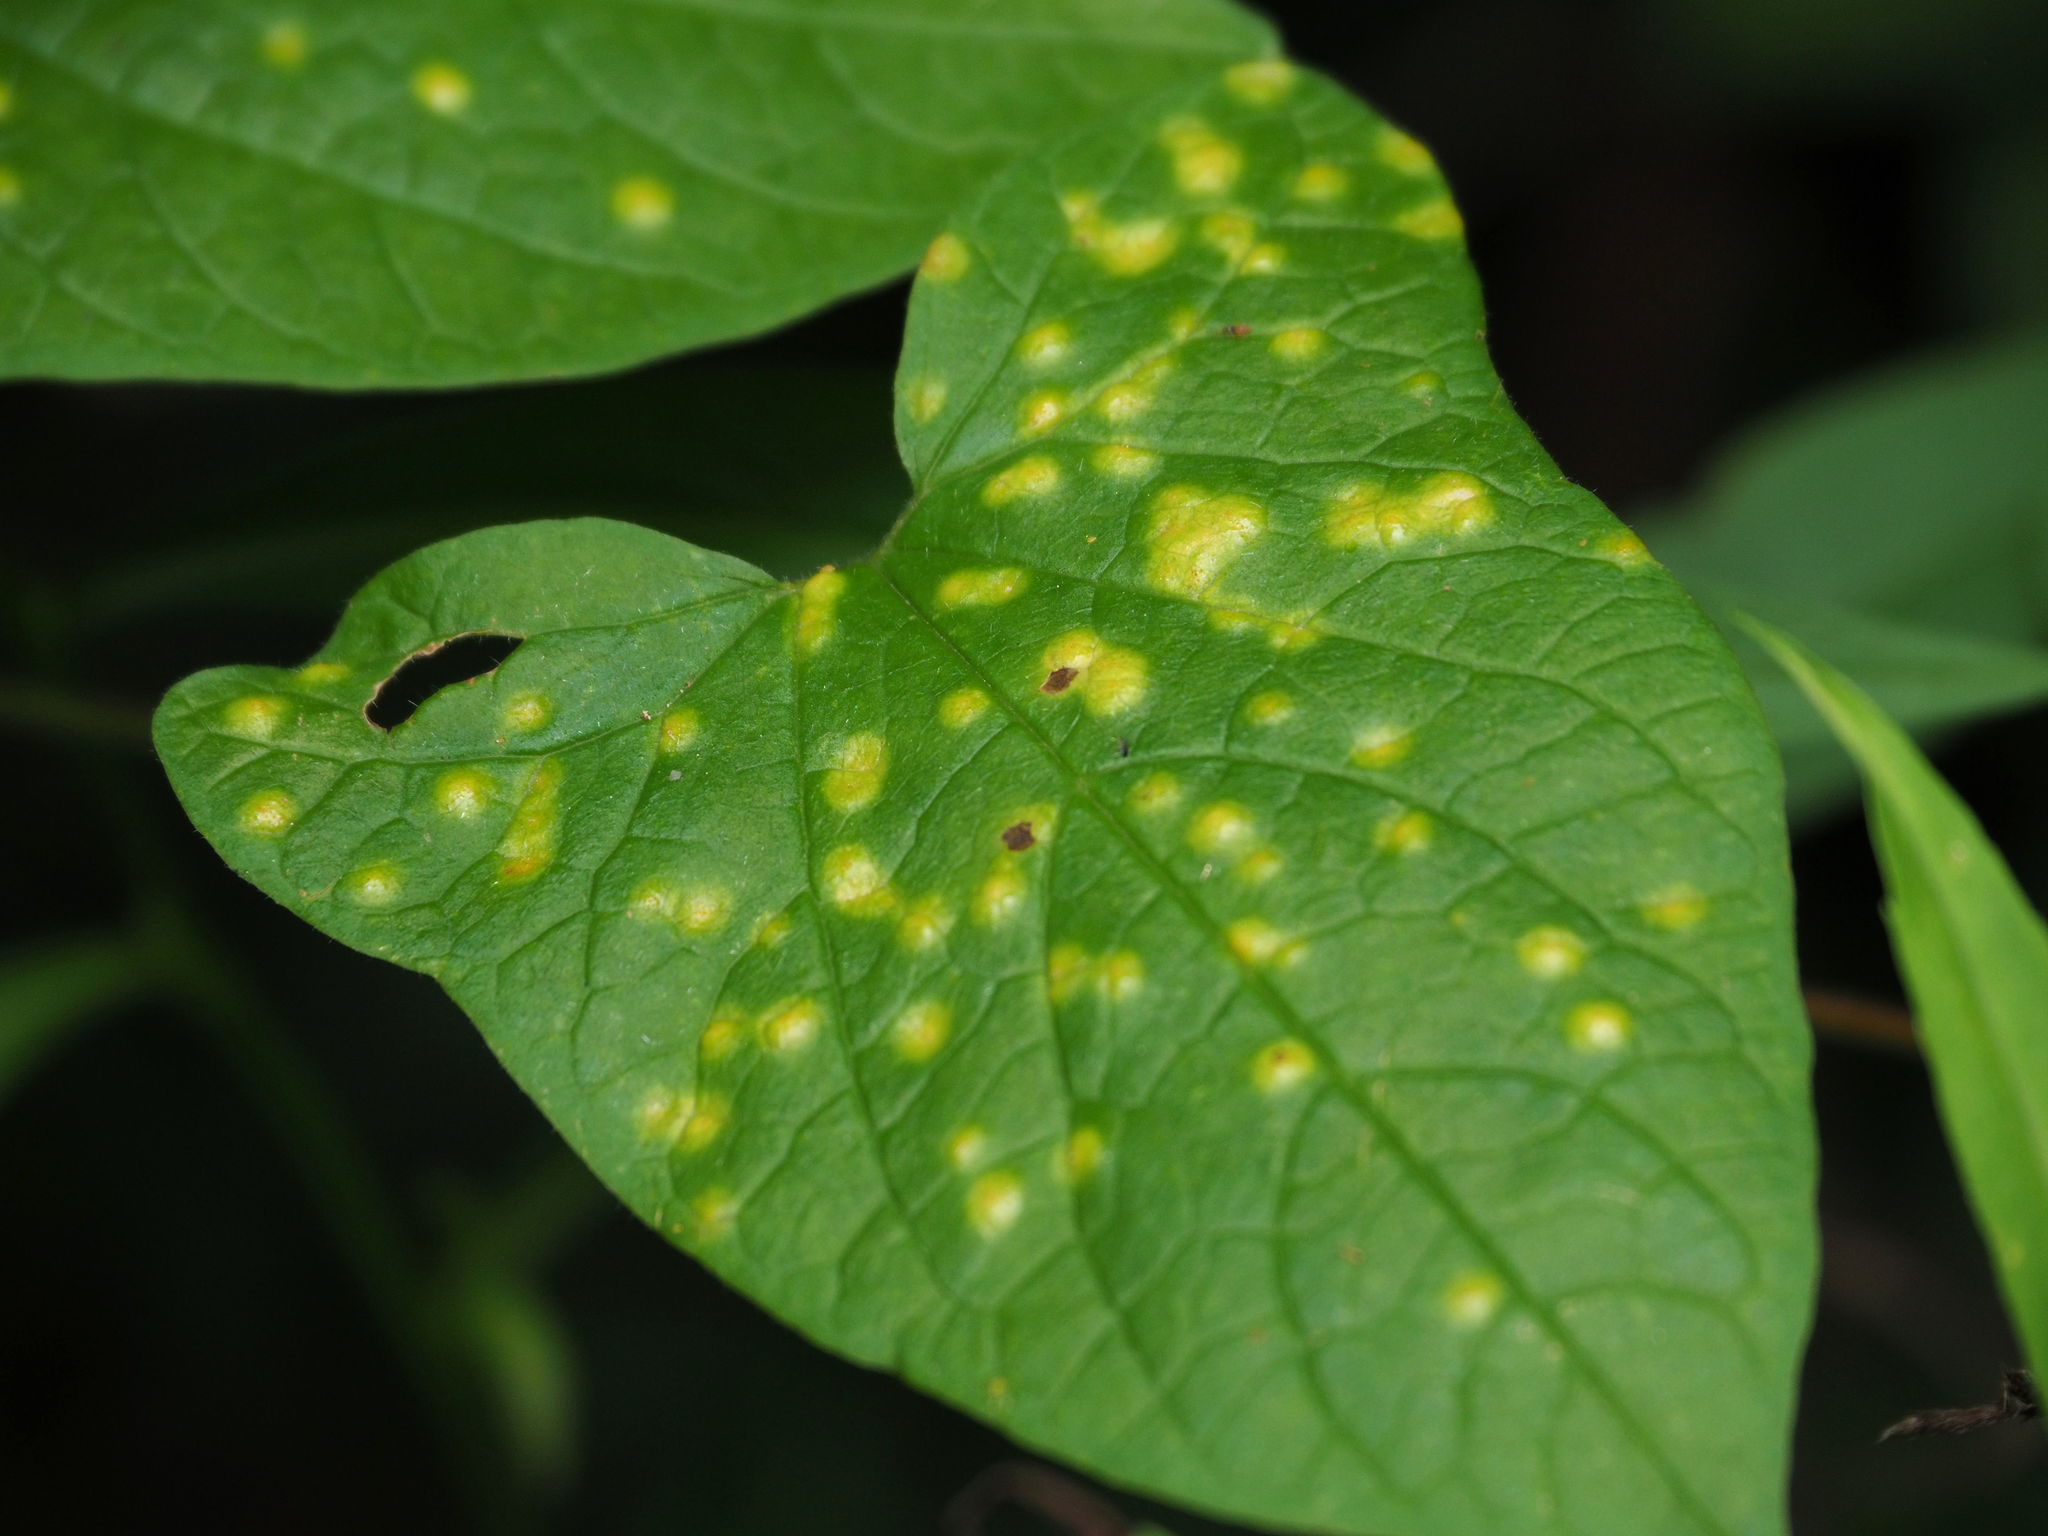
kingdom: Fungi
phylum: Basidiomycota
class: Pucciniomycetes
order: Pucciniales
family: Pucciniaceae
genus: Puccinia
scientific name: Puccinia convolvuli
